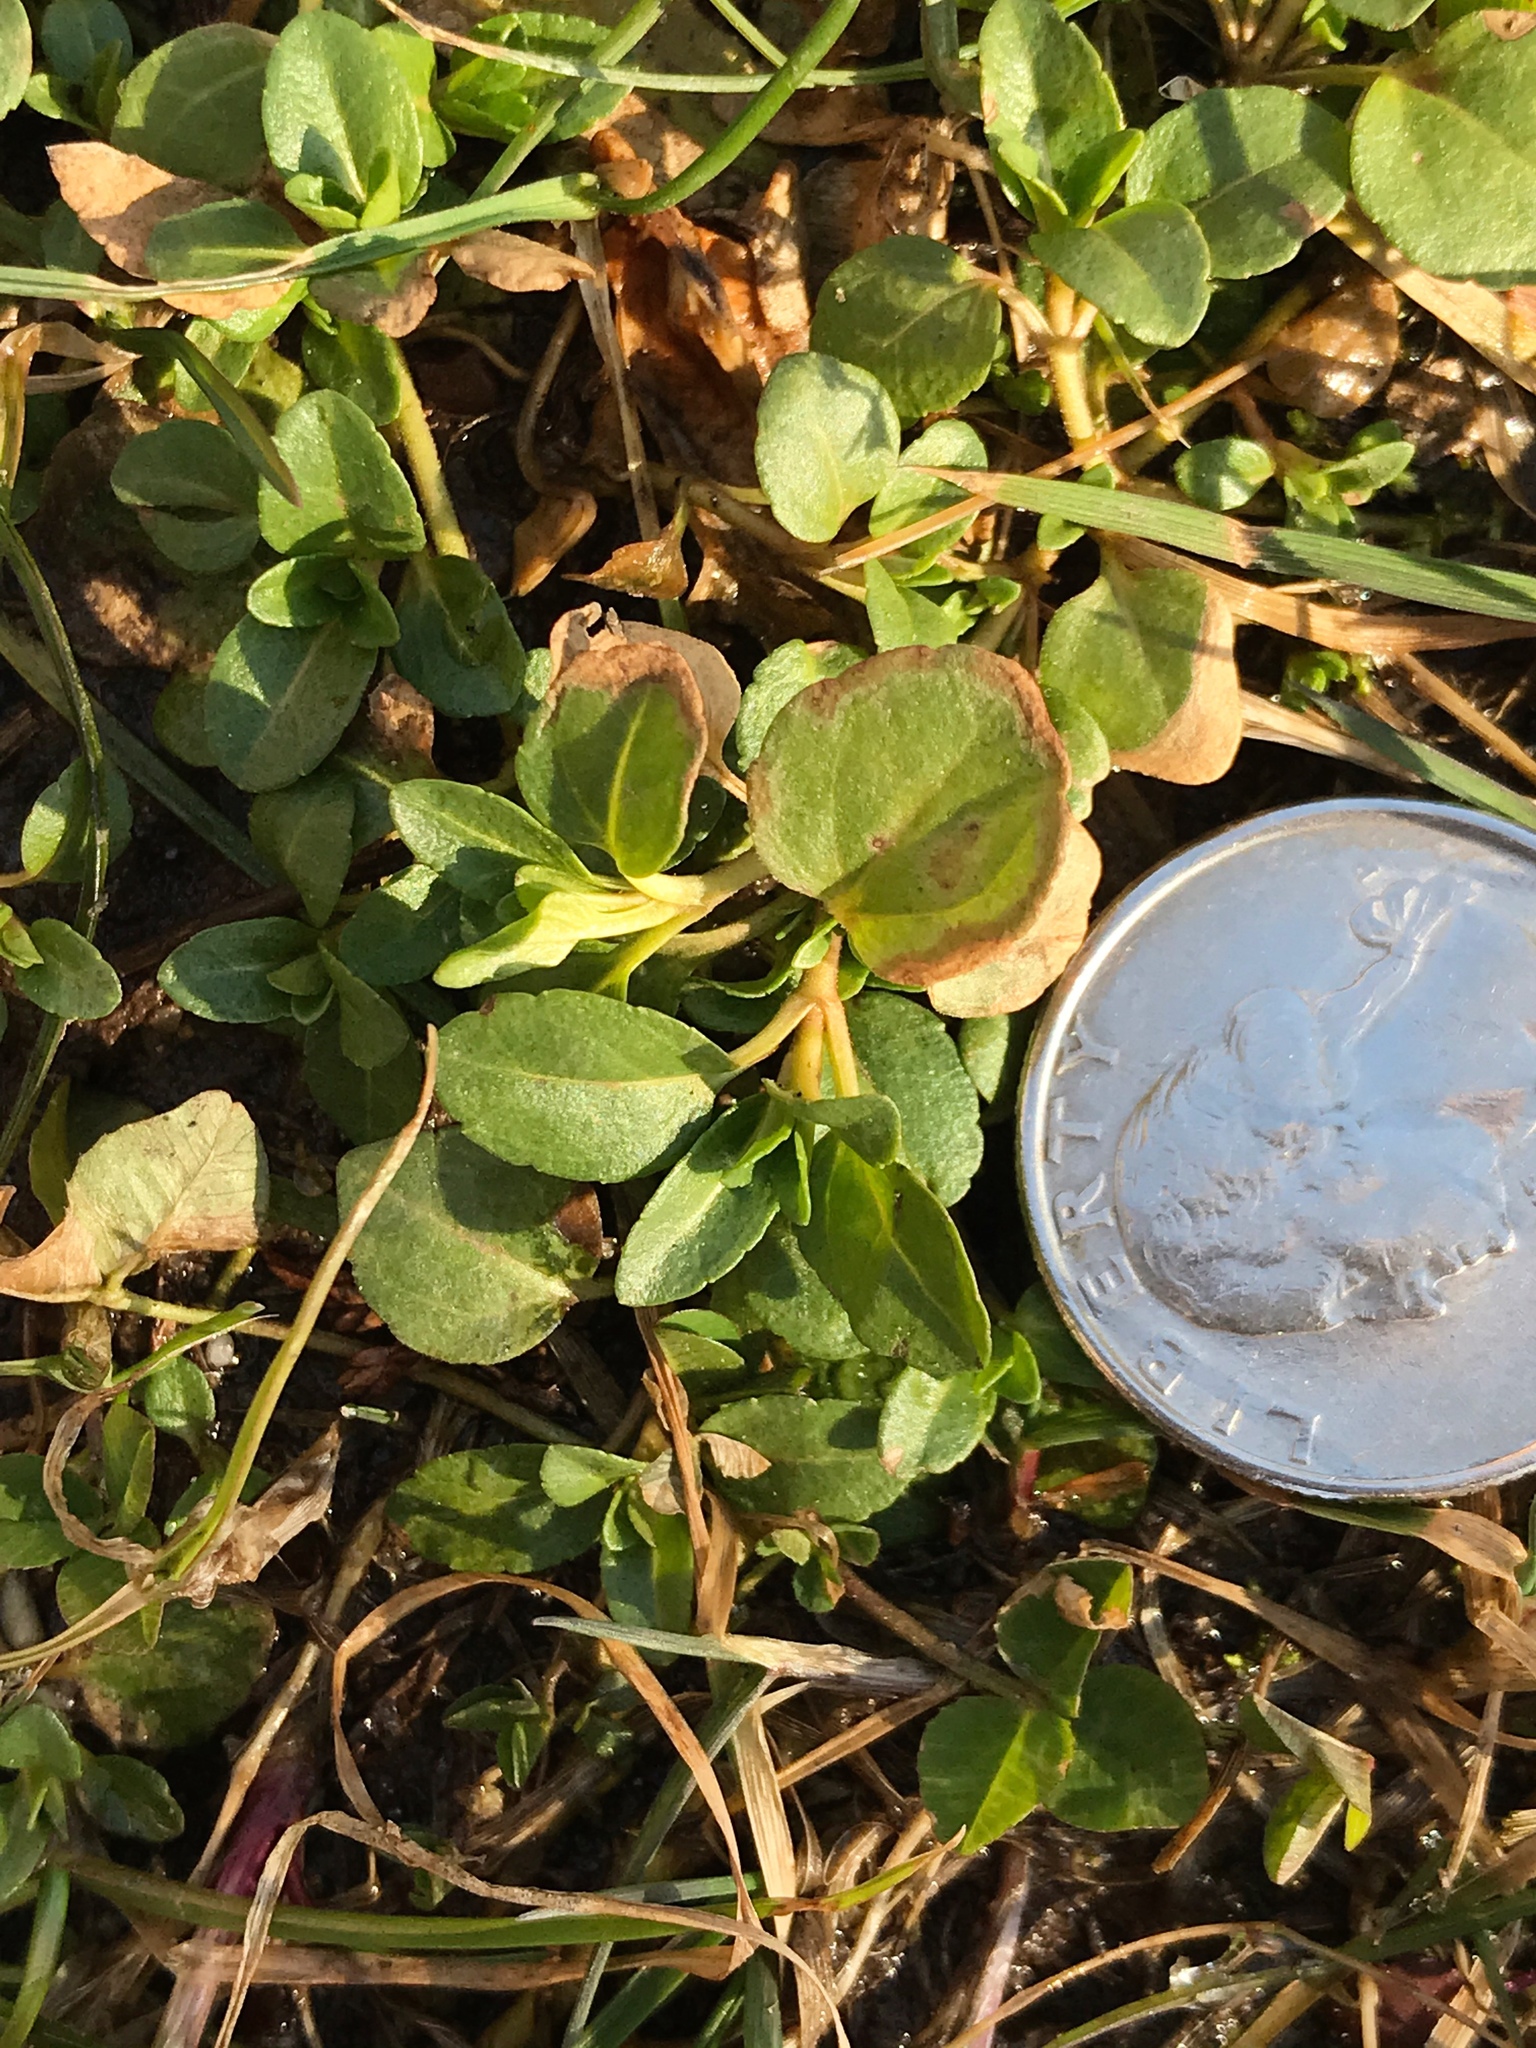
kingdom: Plantae
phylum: Tracheophyta
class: Magnoliopsida
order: Lamiales
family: Plantaginaceae
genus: Veronica
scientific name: Veronica serpyllifolia
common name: Thyme-leaved speedwell
